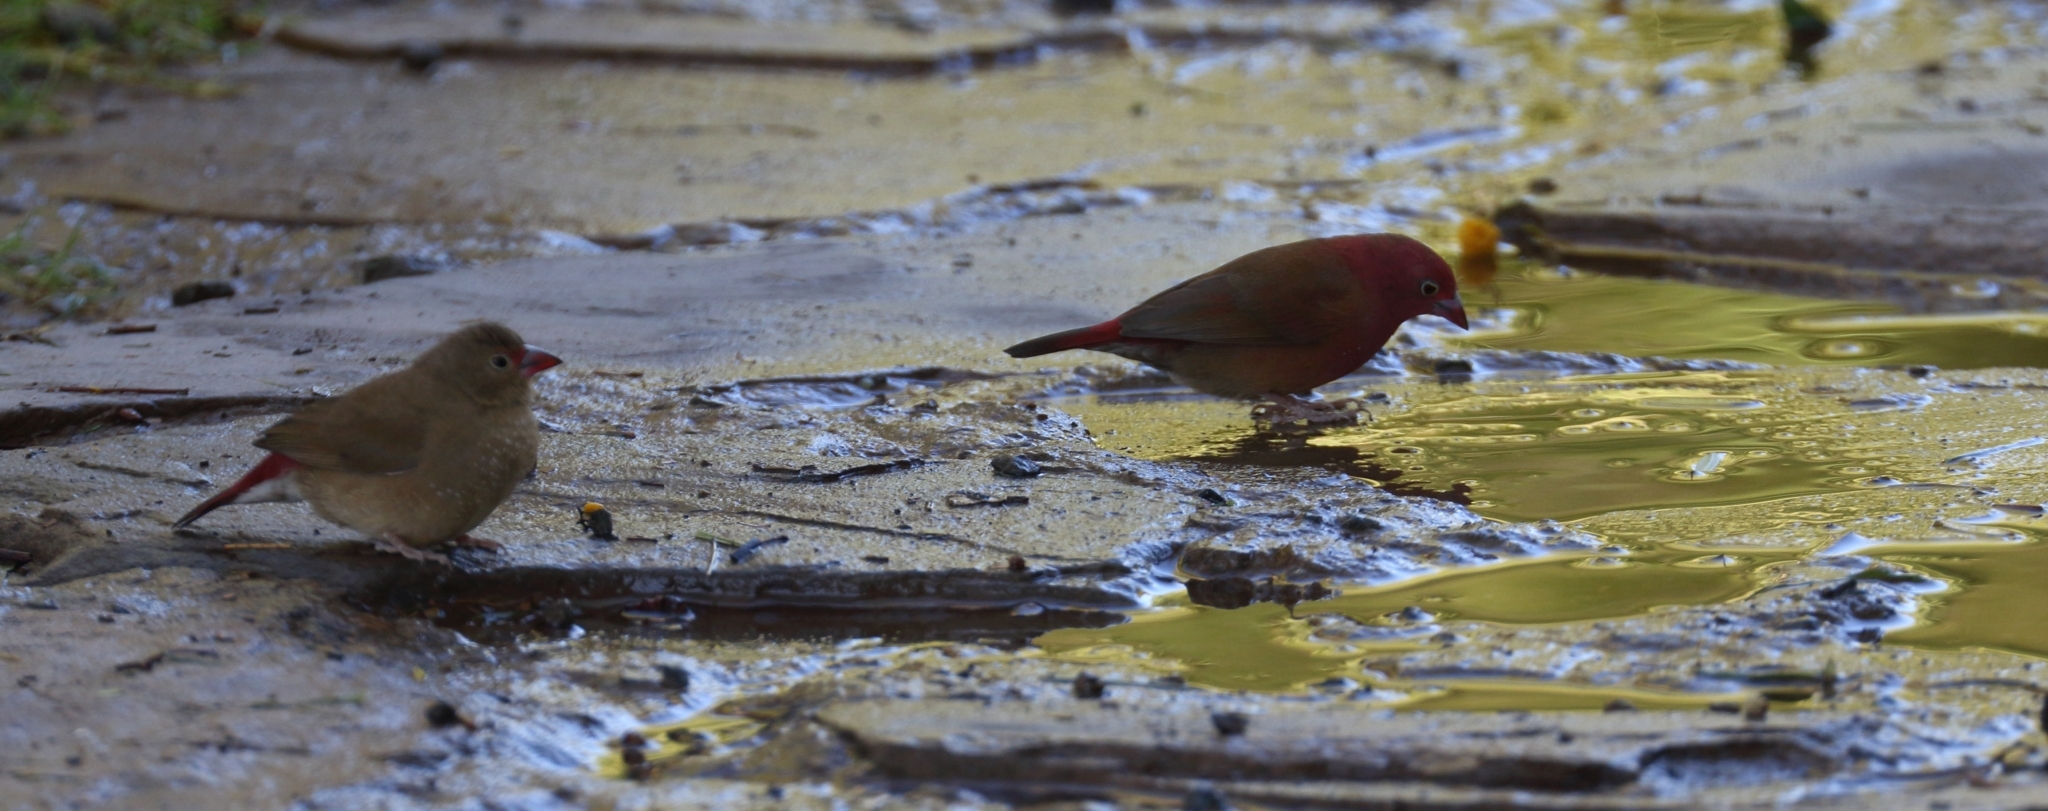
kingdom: Animalia
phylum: Chordata
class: Aves
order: Passeriformes
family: Estrildidae
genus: Lagonosticta
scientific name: Lagonosticta senegala
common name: Red-billed firefinch
